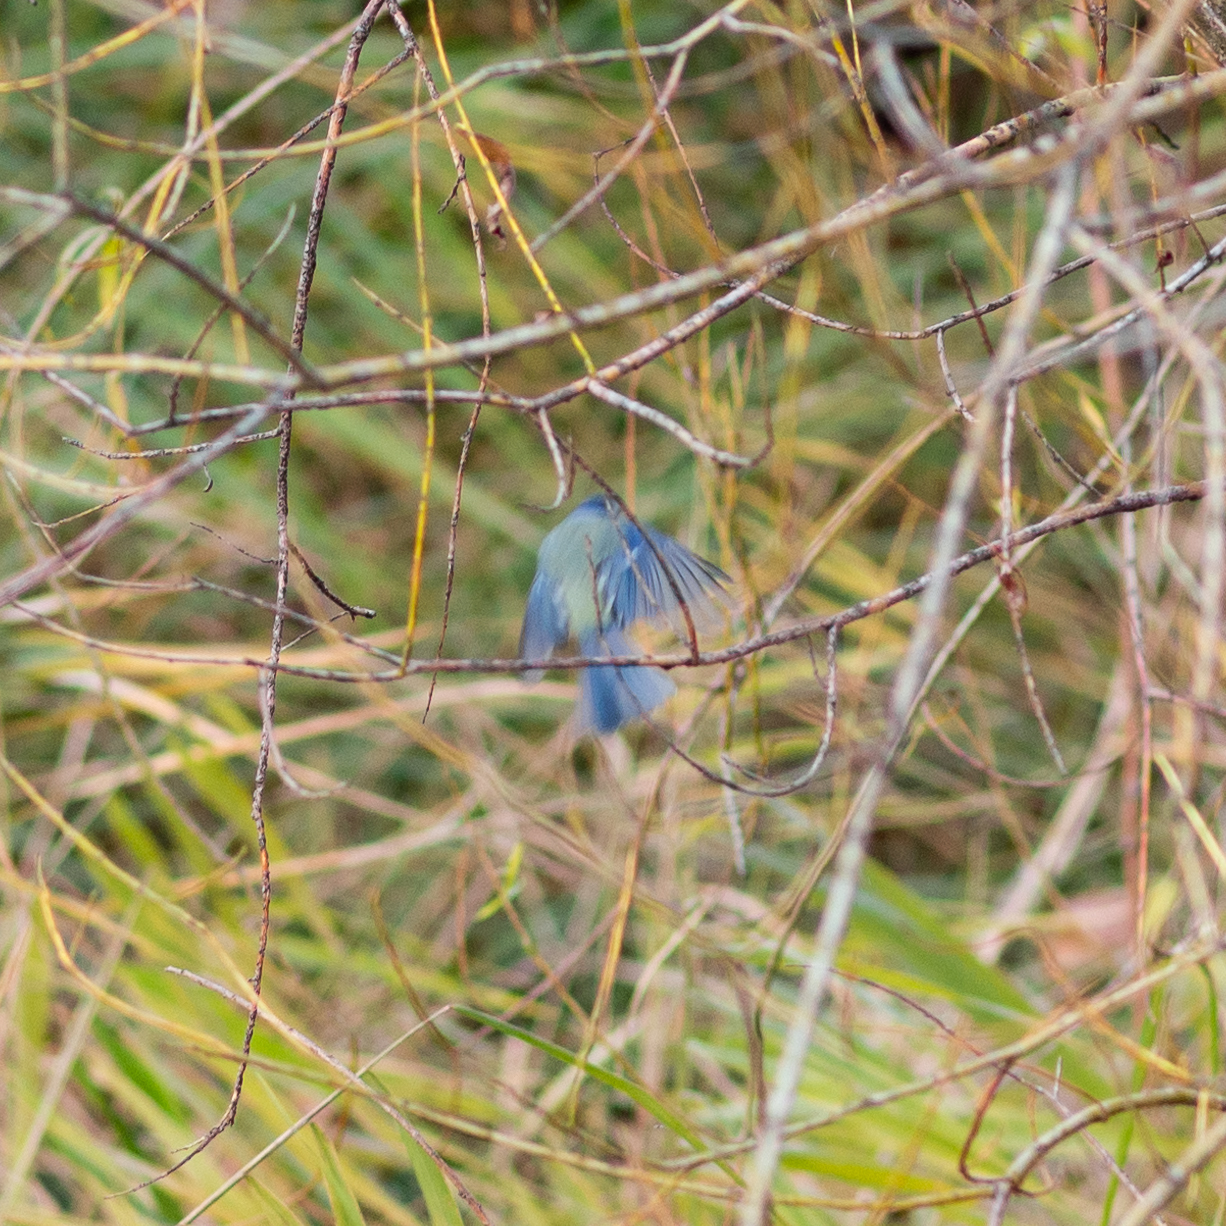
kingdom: Animalia
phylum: Chordata
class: Aves
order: Passeriformes
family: Paridae
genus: Cyanistes
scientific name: Cyanistes caeruleus
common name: Eurasian blue tit
